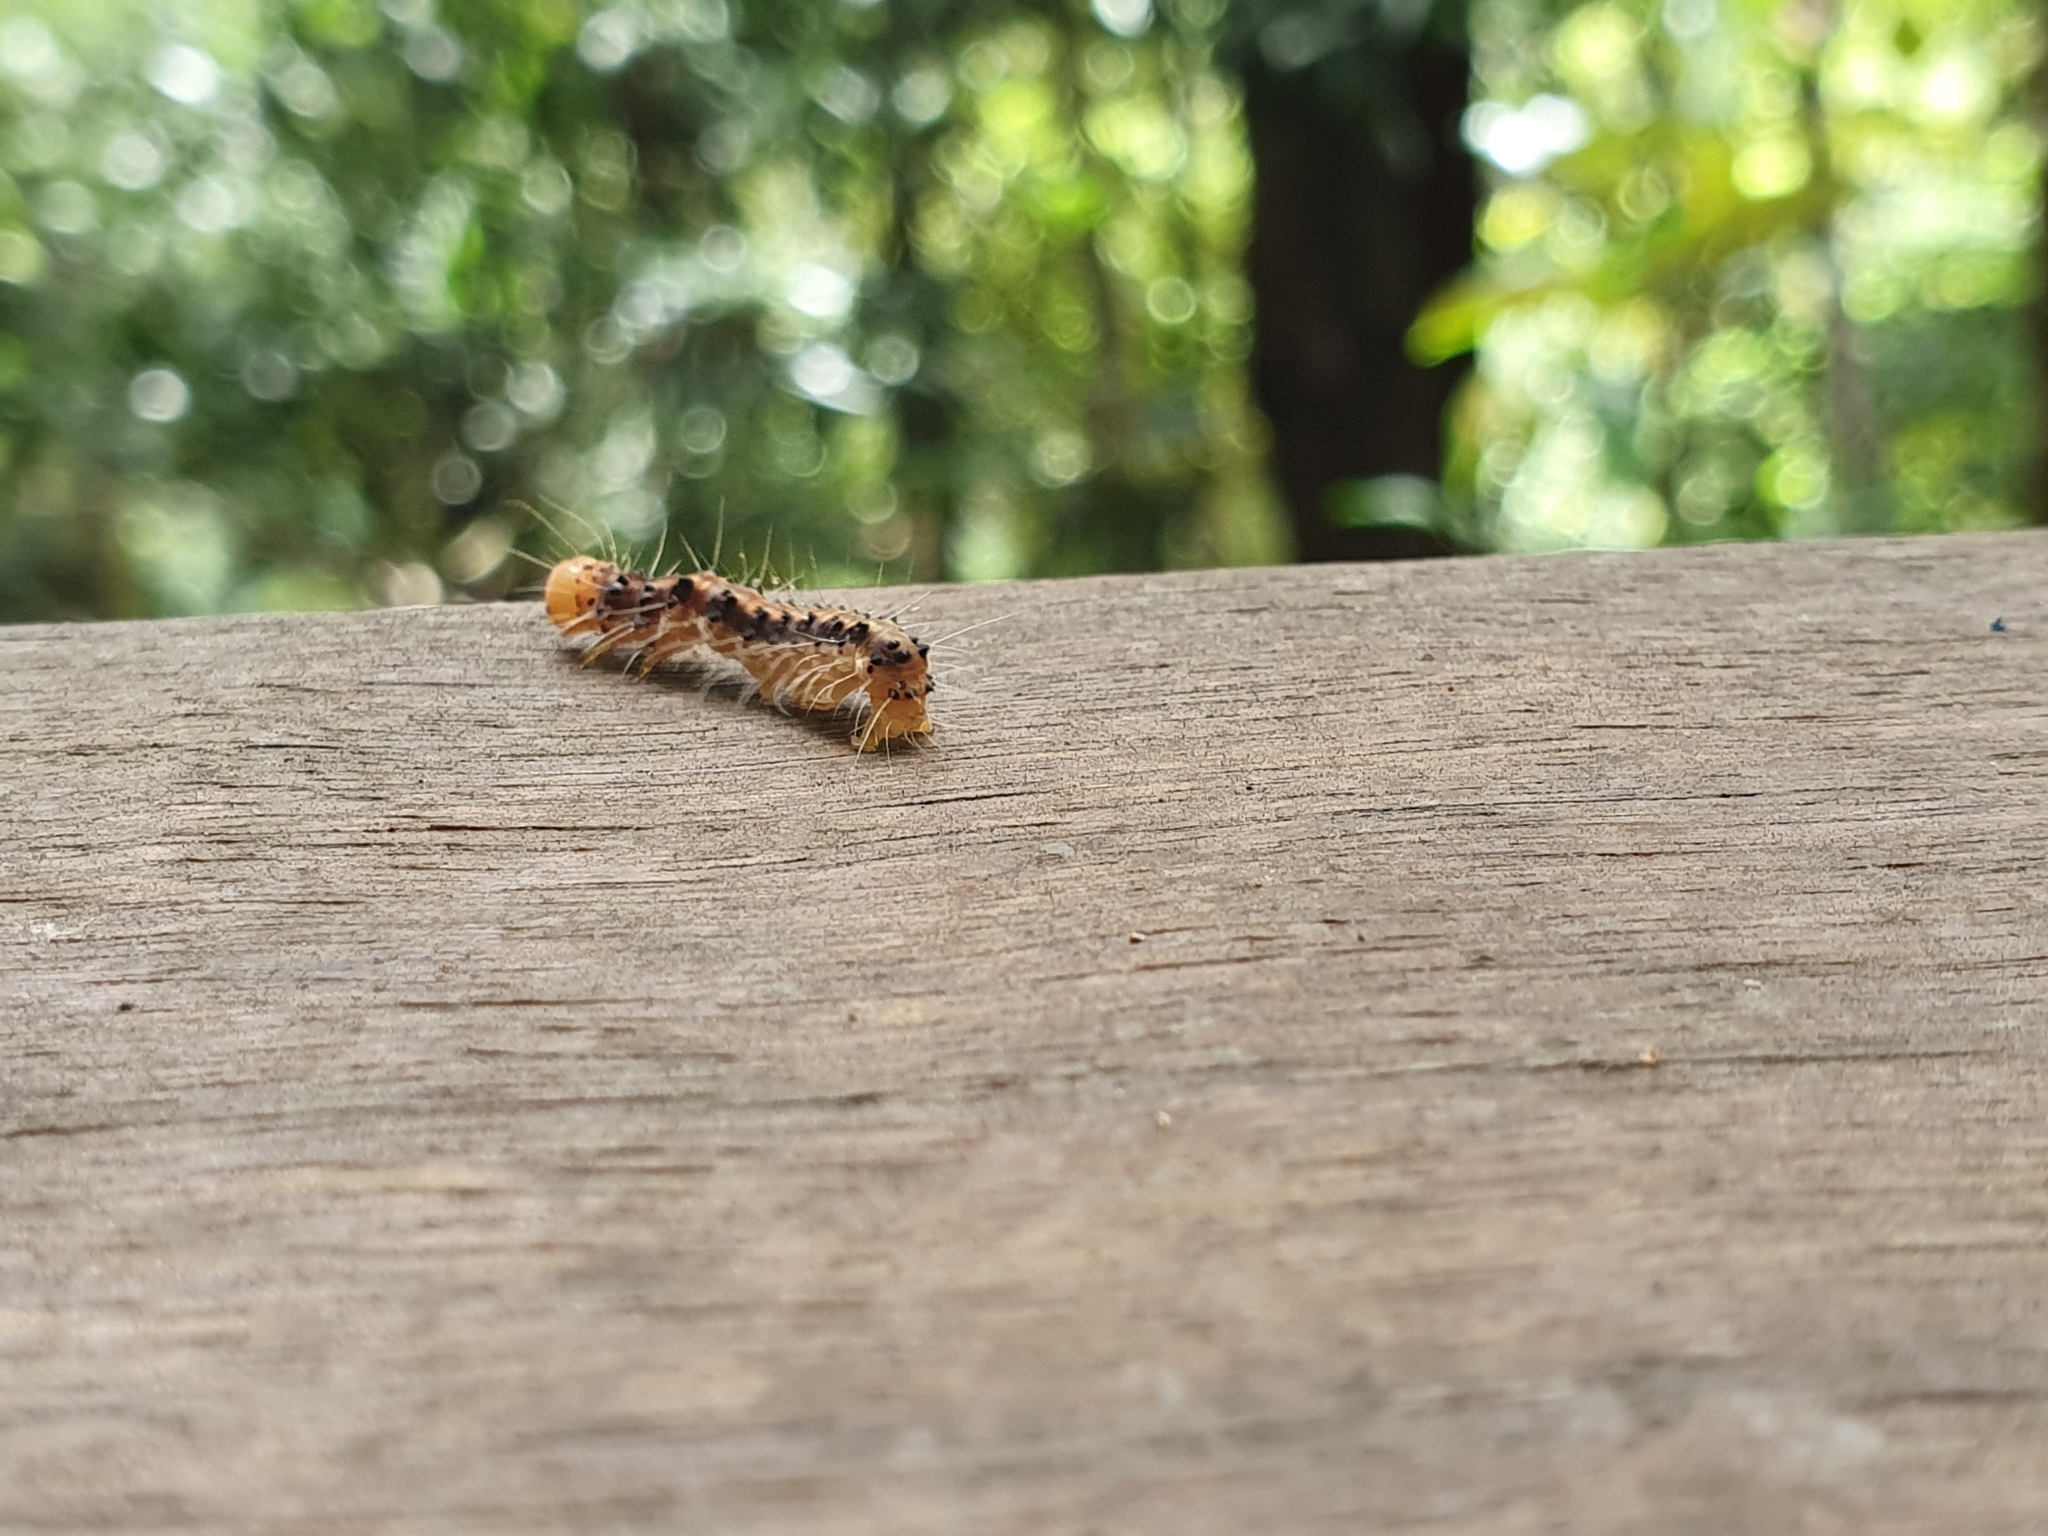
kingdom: Animalia
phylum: Arthropoda
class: Insecta
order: Lepidoptera
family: Erebidae
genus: Asota
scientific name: Asota heliconia
